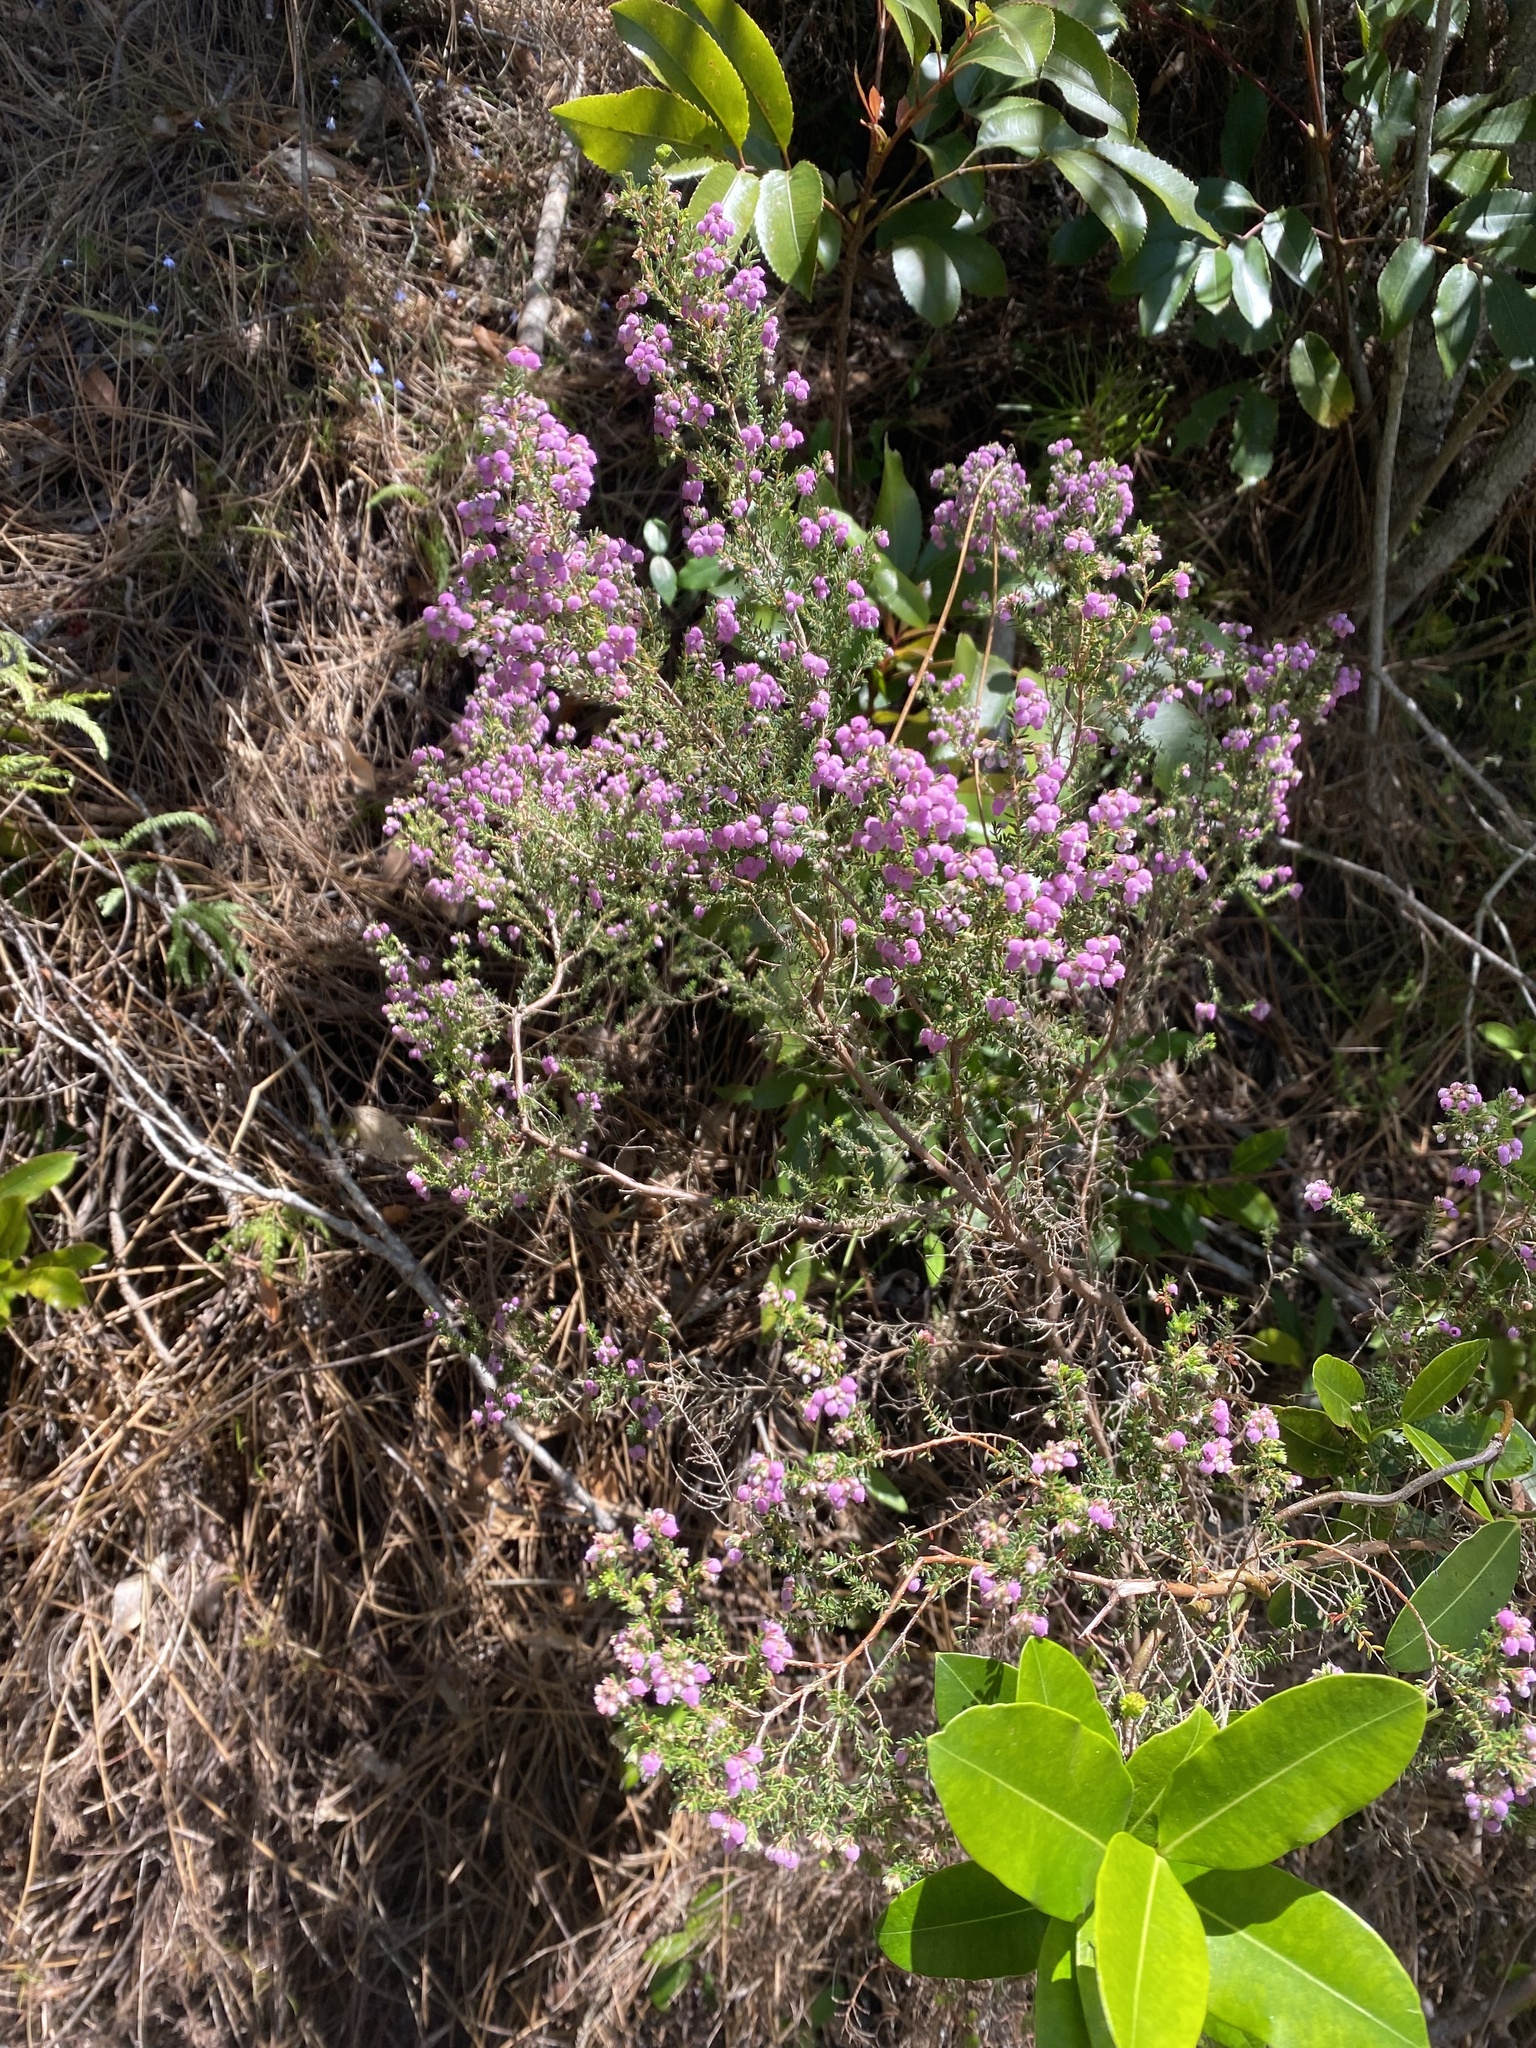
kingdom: Plantae
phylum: Tracheophyta
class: Magnoliopsida
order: Ericales
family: Ericaceae
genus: Erica
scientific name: Erica hirtiflora
